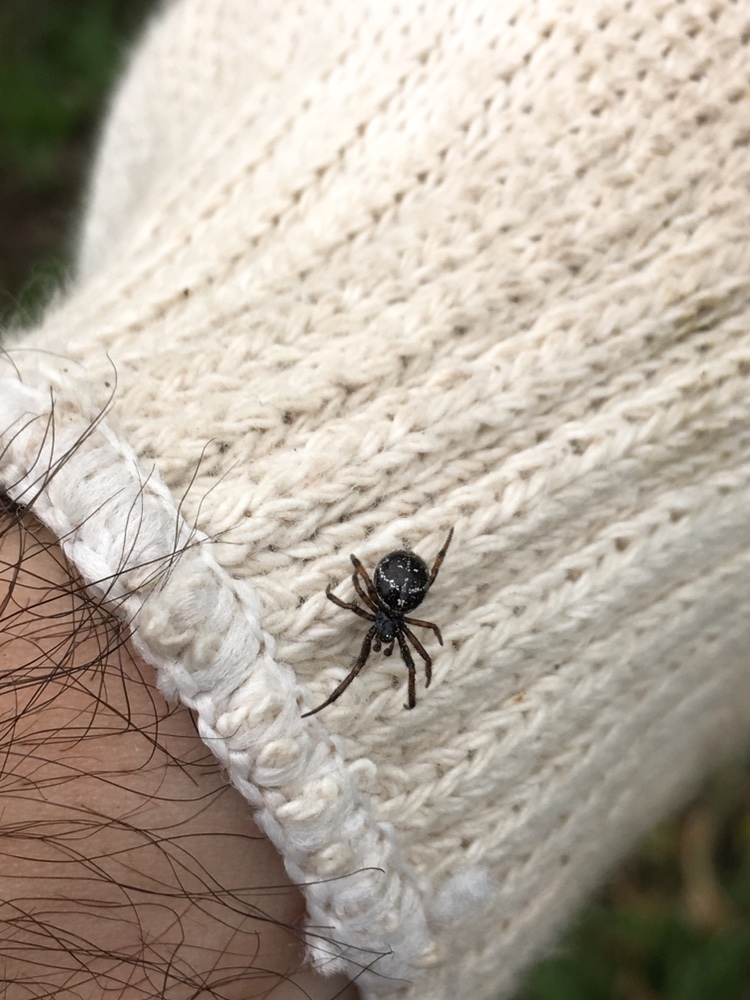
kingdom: Animalia
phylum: Arthropoda
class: Arachnida
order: Araneae
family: Theridiidae
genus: Steatoda
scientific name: Steatoda retorta
